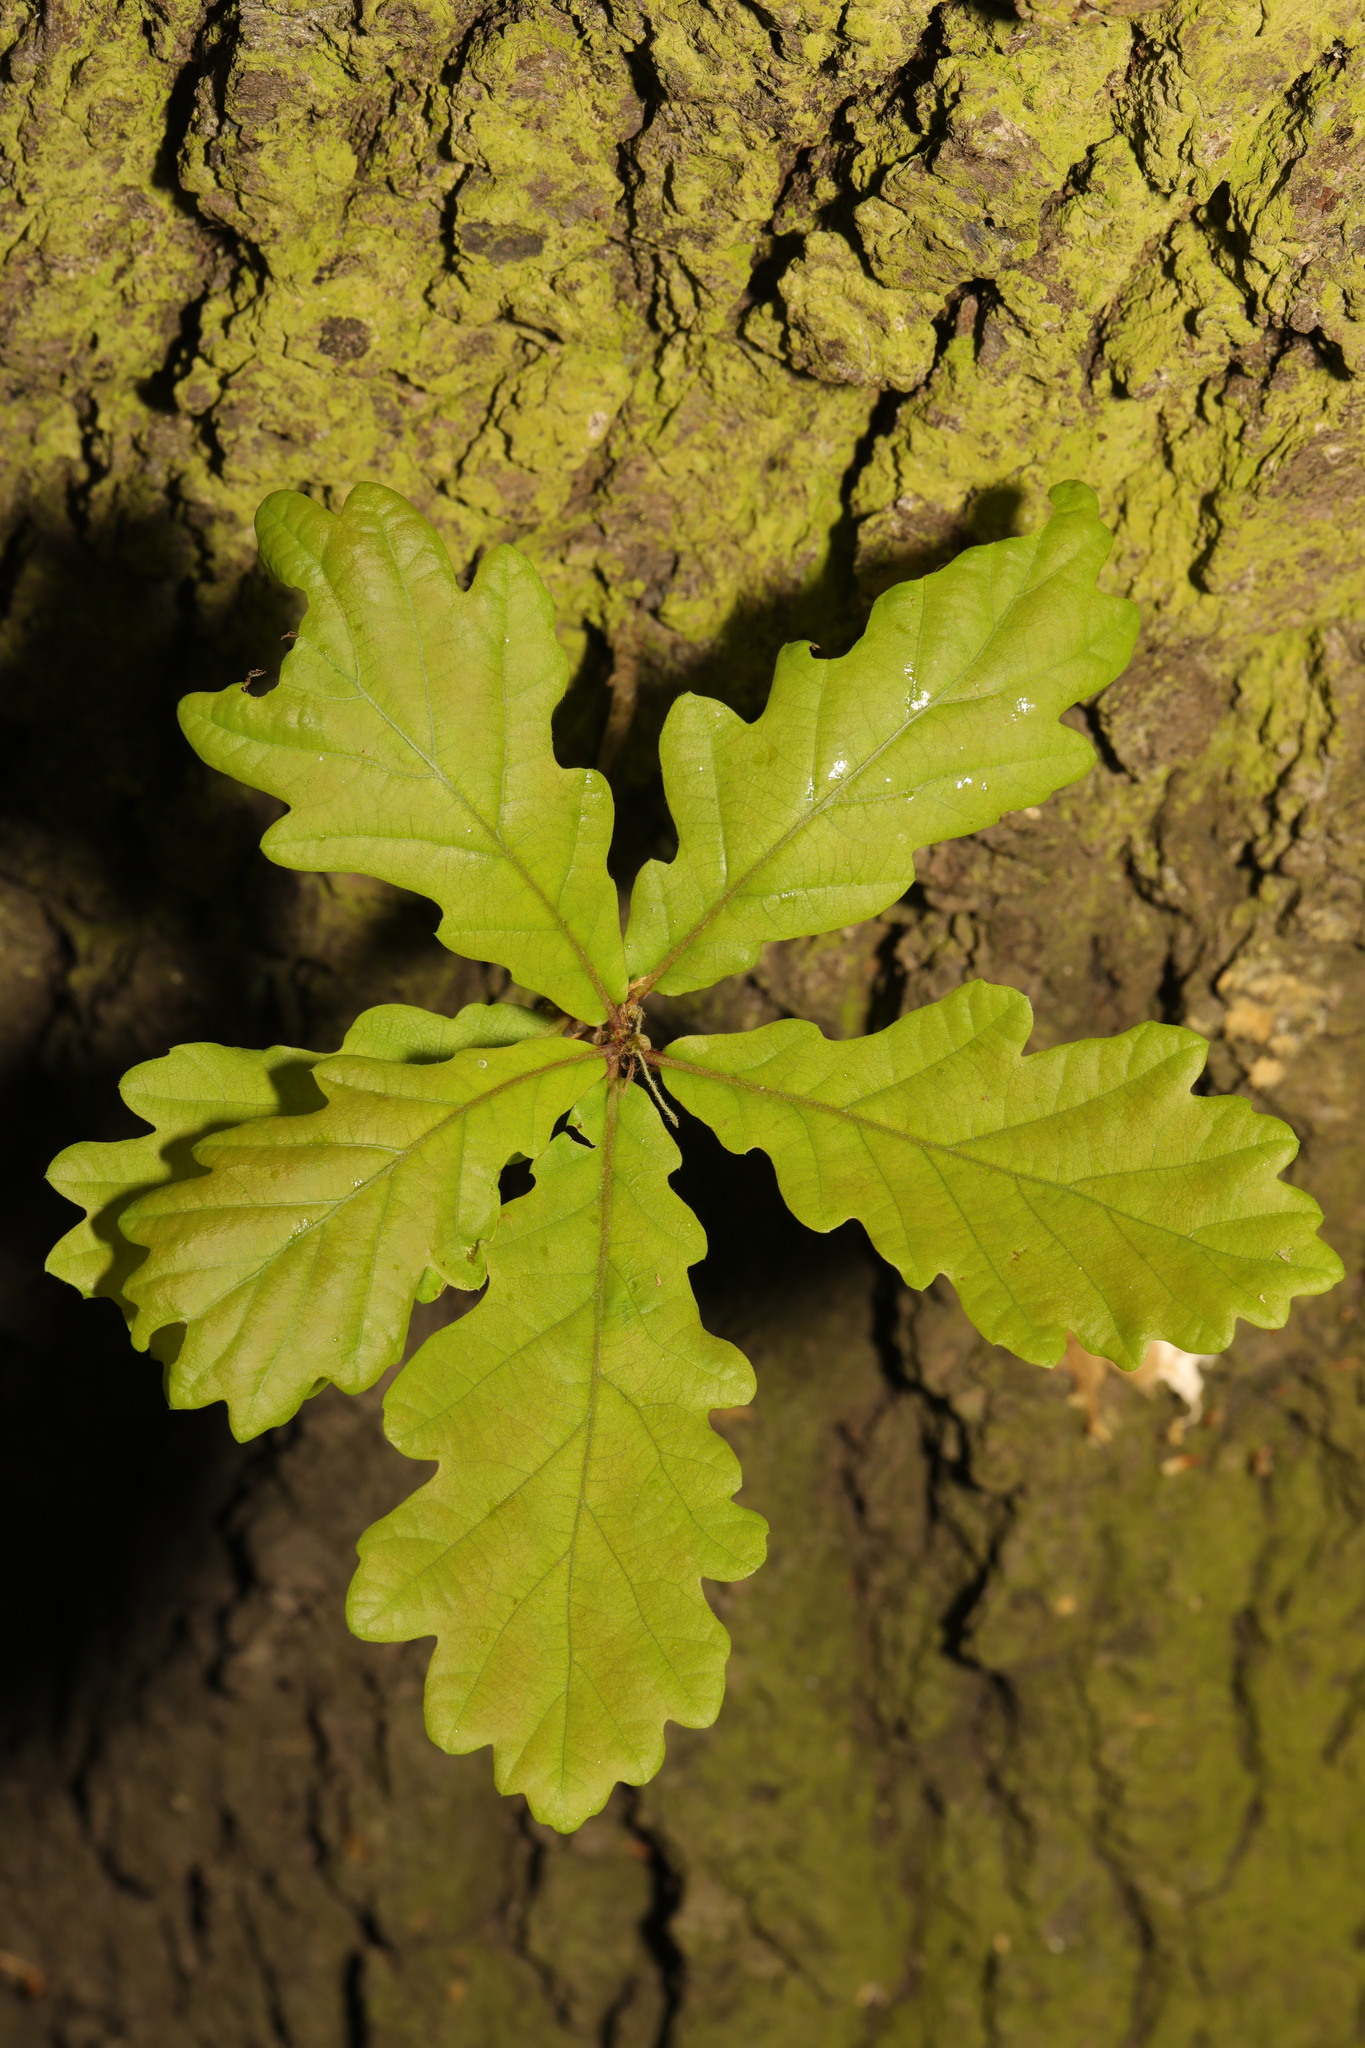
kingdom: Plantae
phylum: Tracheophyta
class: Magnoliopsida
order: Fagales
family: Fagaceae
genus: Quercus
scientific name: Quercus robur
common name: Pedunculate oak
